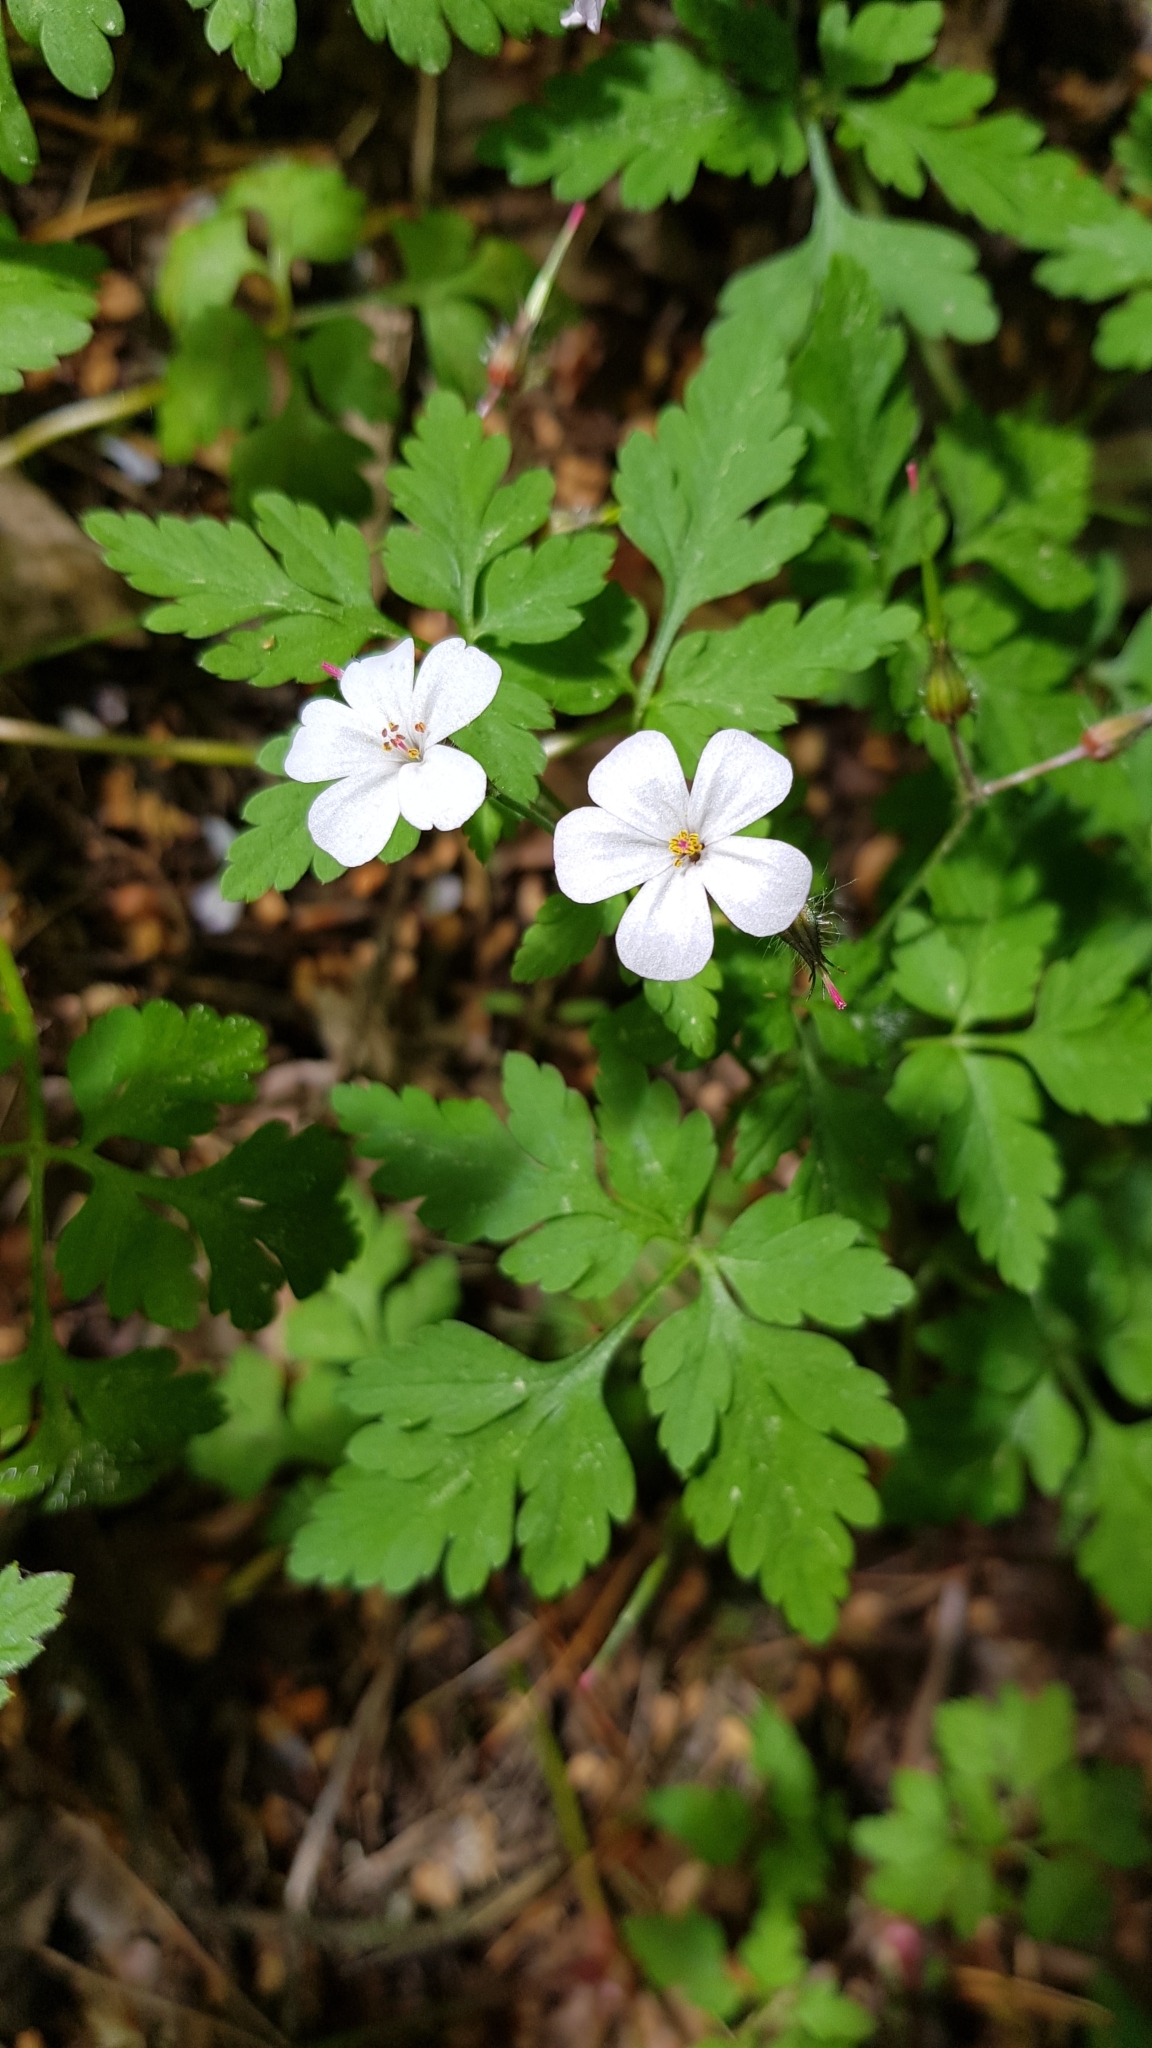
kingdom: Plantae
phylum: Tracheophyta
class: Magnoliopsida
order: Geraniales
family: Geraniaceae
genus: Geranium
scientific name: Geranium robertianum
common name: Herb-robert
